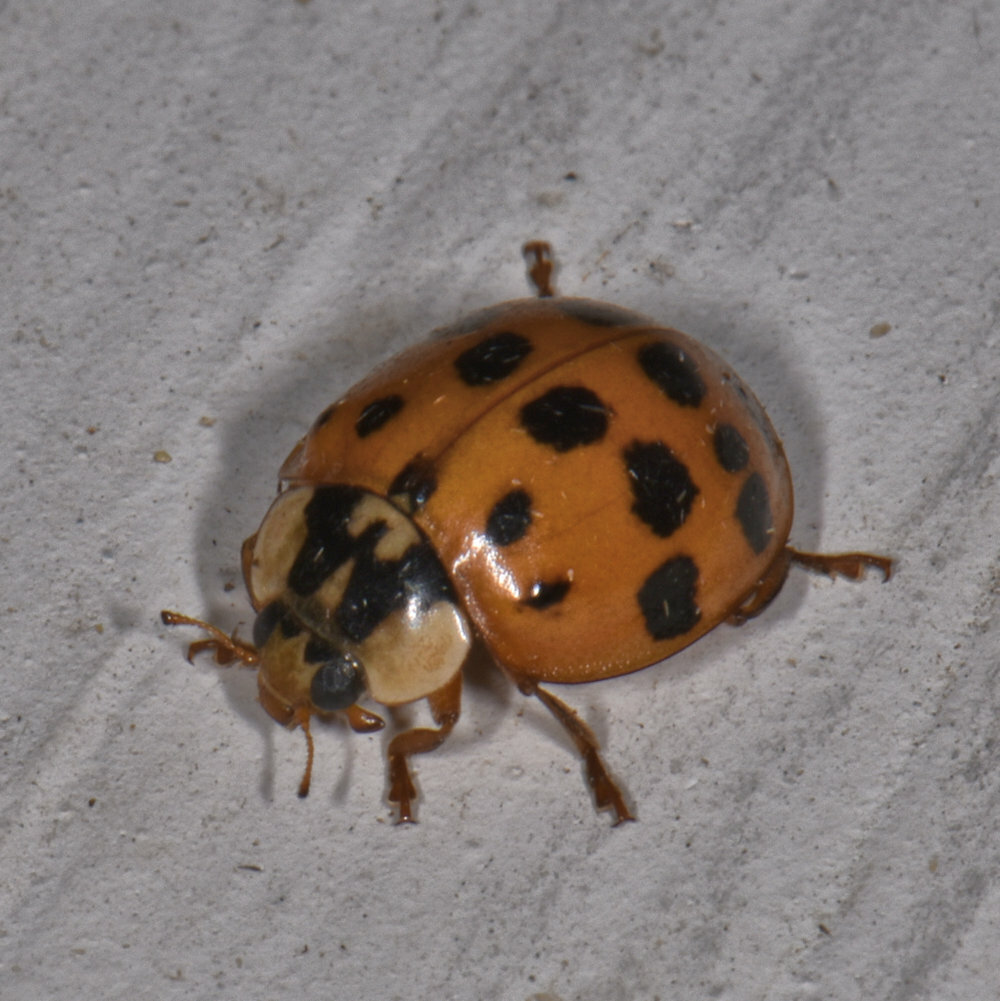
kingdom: Animalia
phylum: Arthropoda
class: Insecta
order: Coleoptera
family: Coccinellidae
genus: Harmonia
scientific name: Harmonia axyridis
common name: Harlequin ladybird
